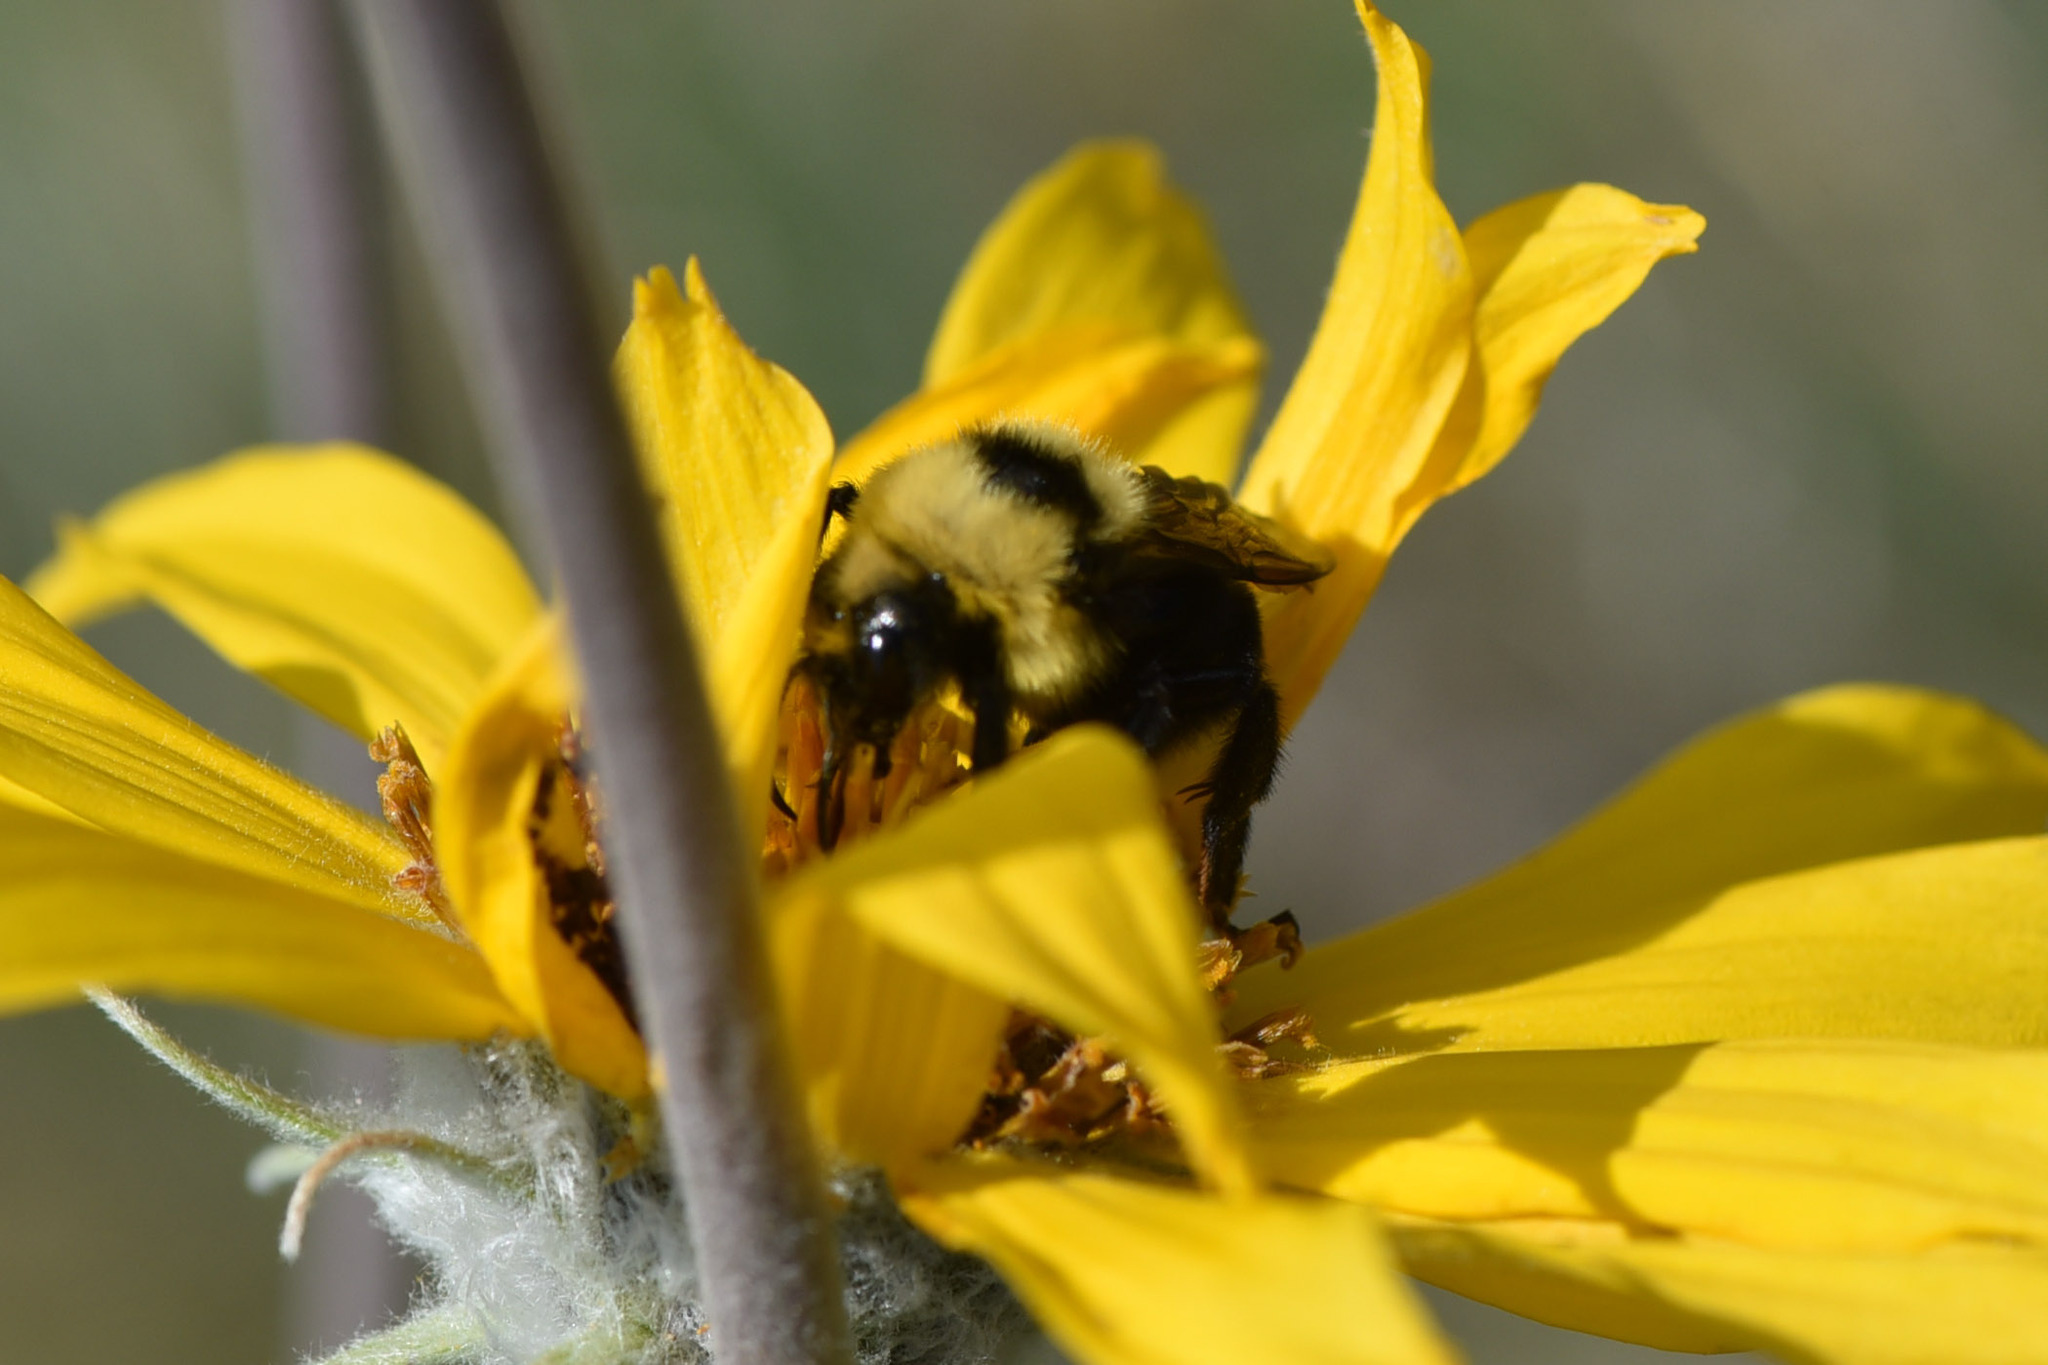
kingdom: Animalia
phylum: Arthropoda
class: Insecta
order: Hymenoptera
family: Apidae
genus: Bombus
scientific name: Bombus insularis
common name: Indiscriminate cuckoo bumble bee
